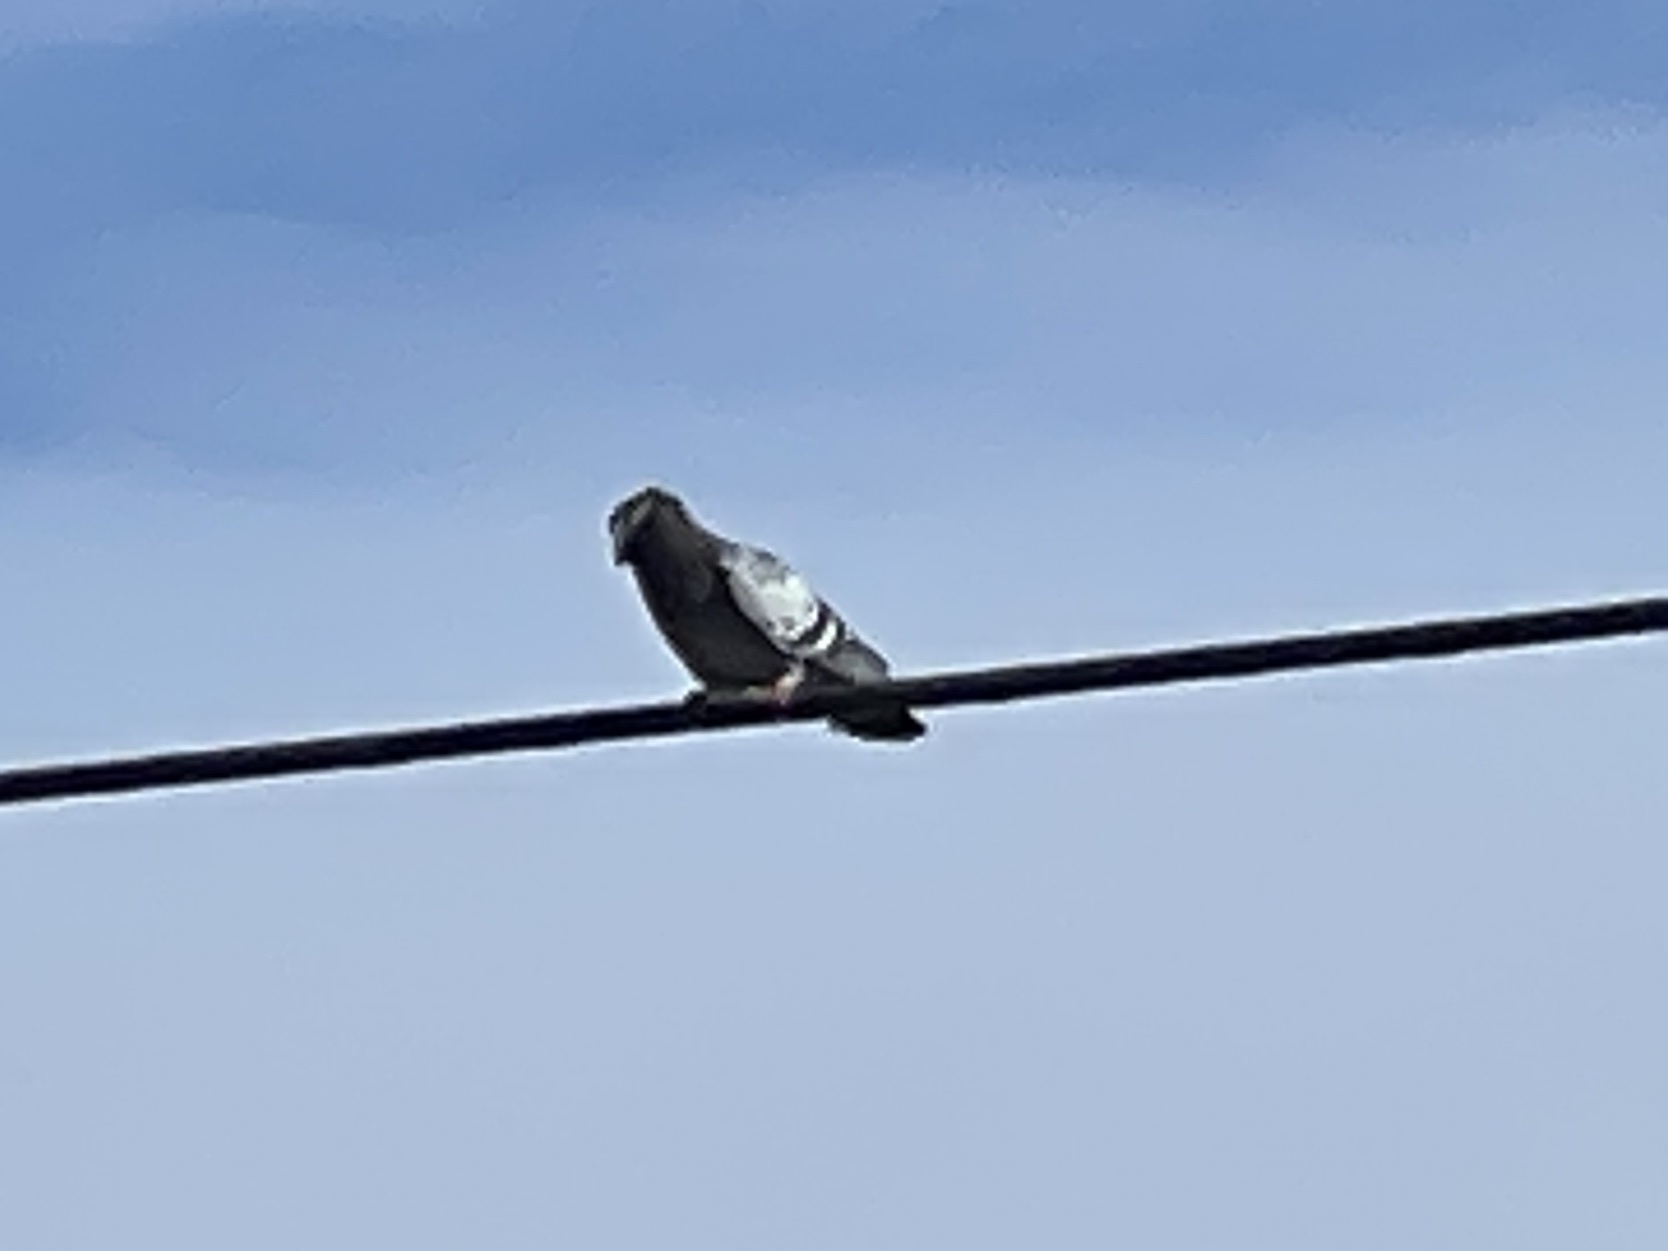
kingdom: Animalia
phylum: Chordata
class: Aves
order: Columbiformes
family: Columbidae
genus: Columba
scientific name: Columba livia
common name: Rock pigeon
